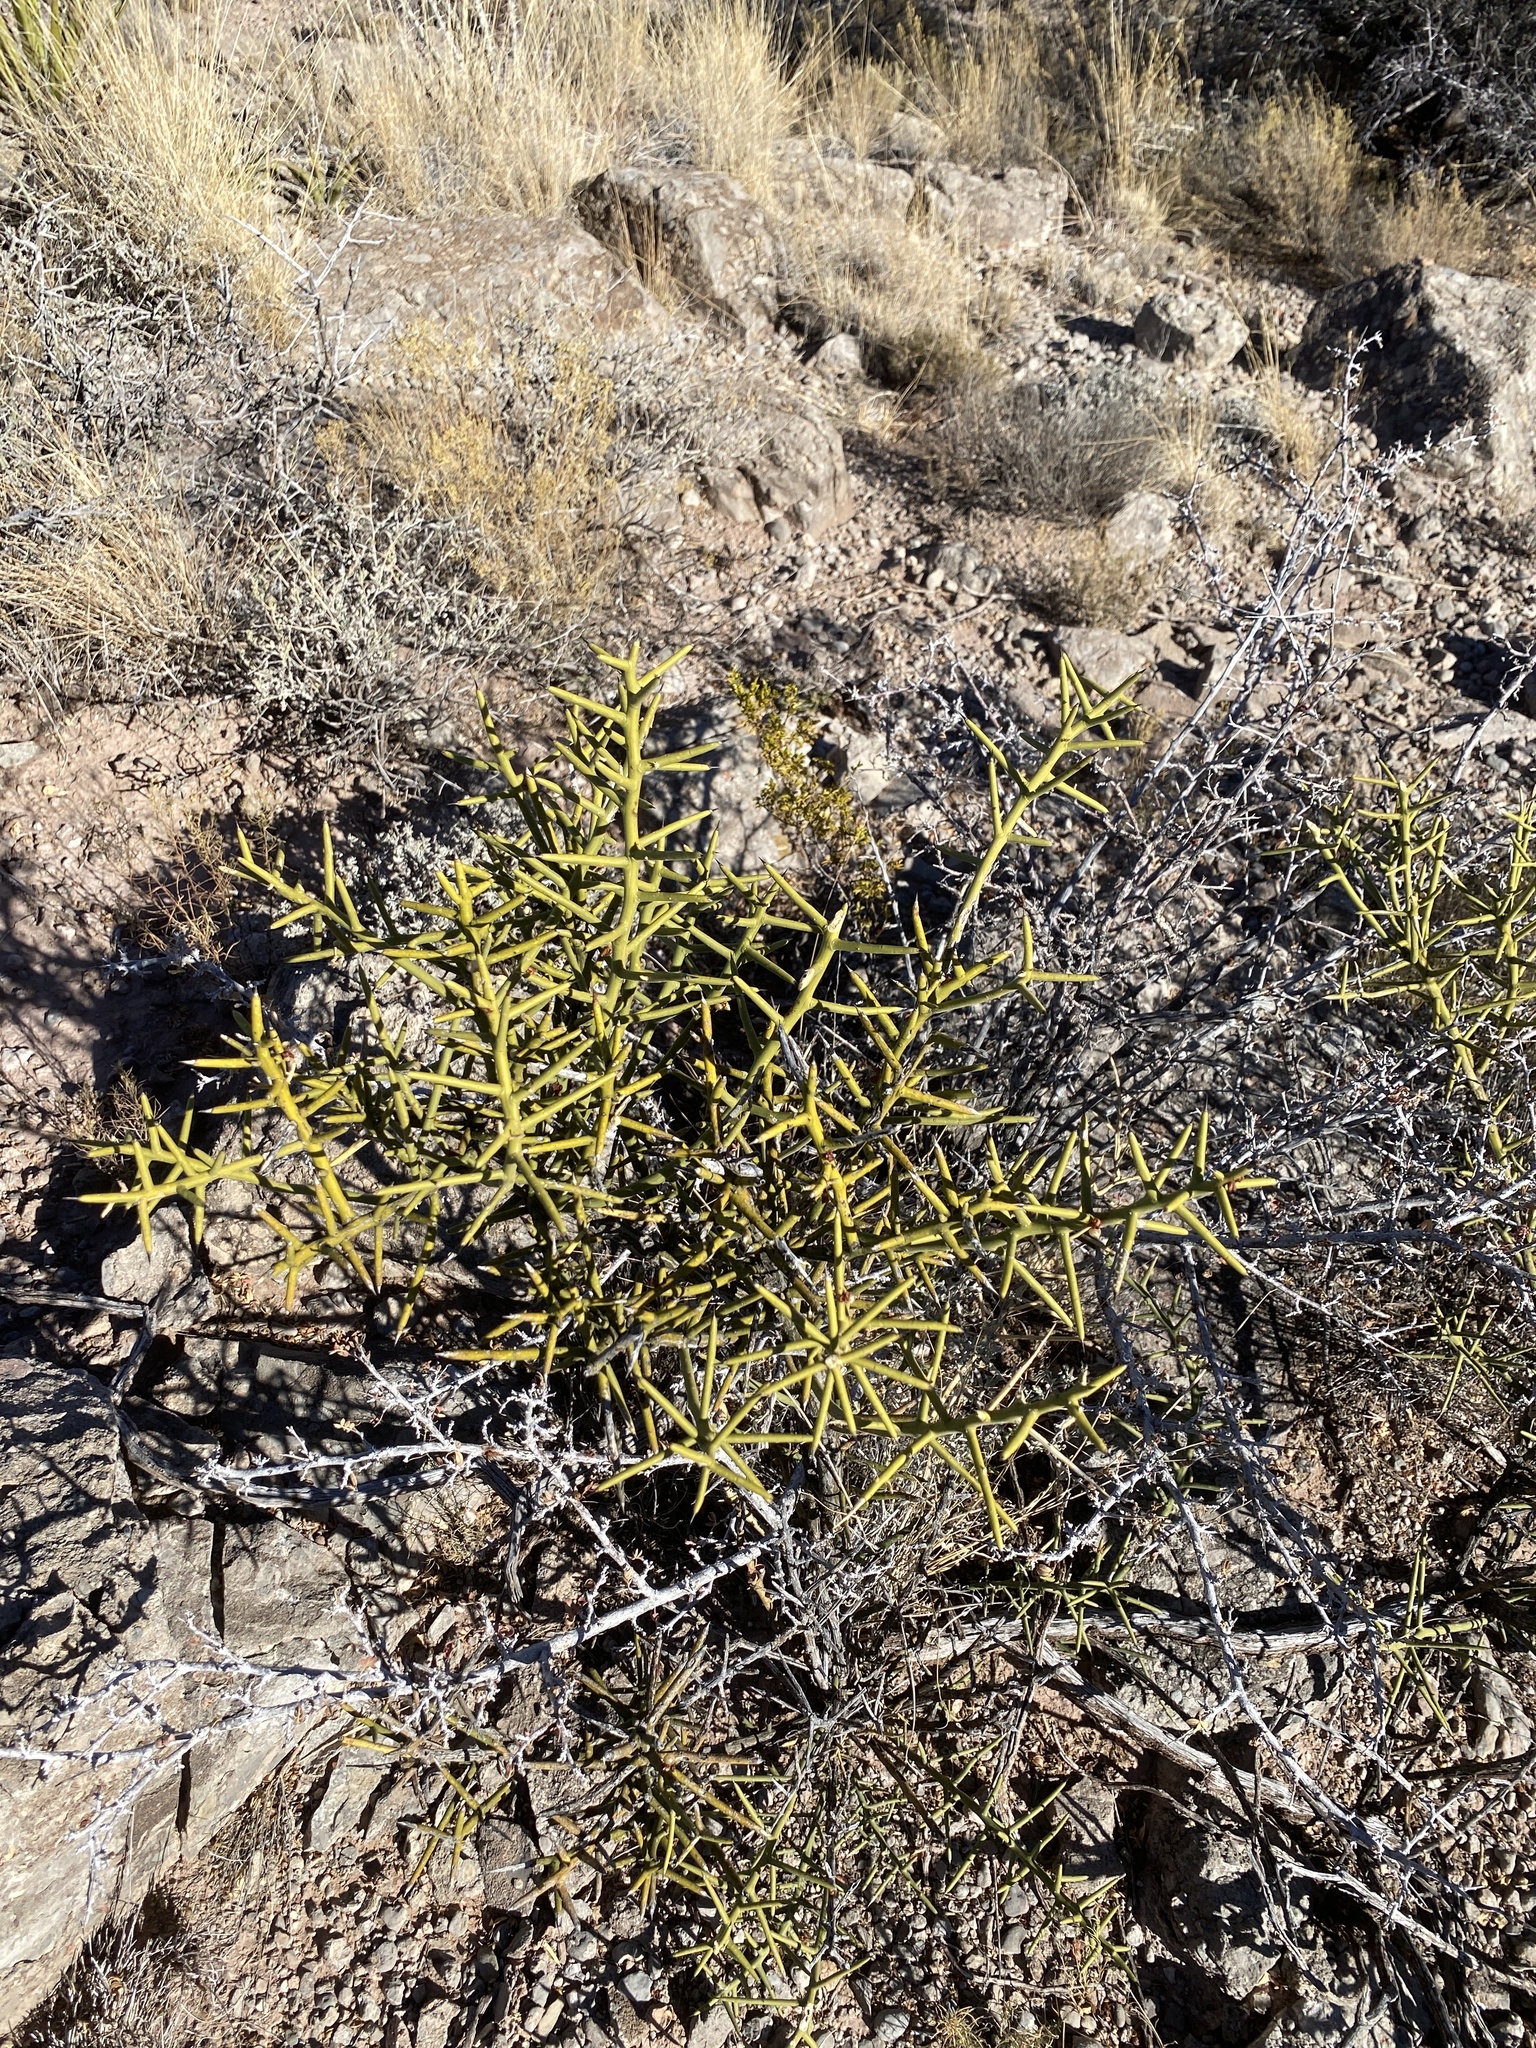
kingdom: Plantae
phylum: Tracheophyta
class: Magnoliopsida
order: Brassicales
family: Koeberliniaceae
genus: Koeberlinia
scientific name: Koeberlinia spinosa
